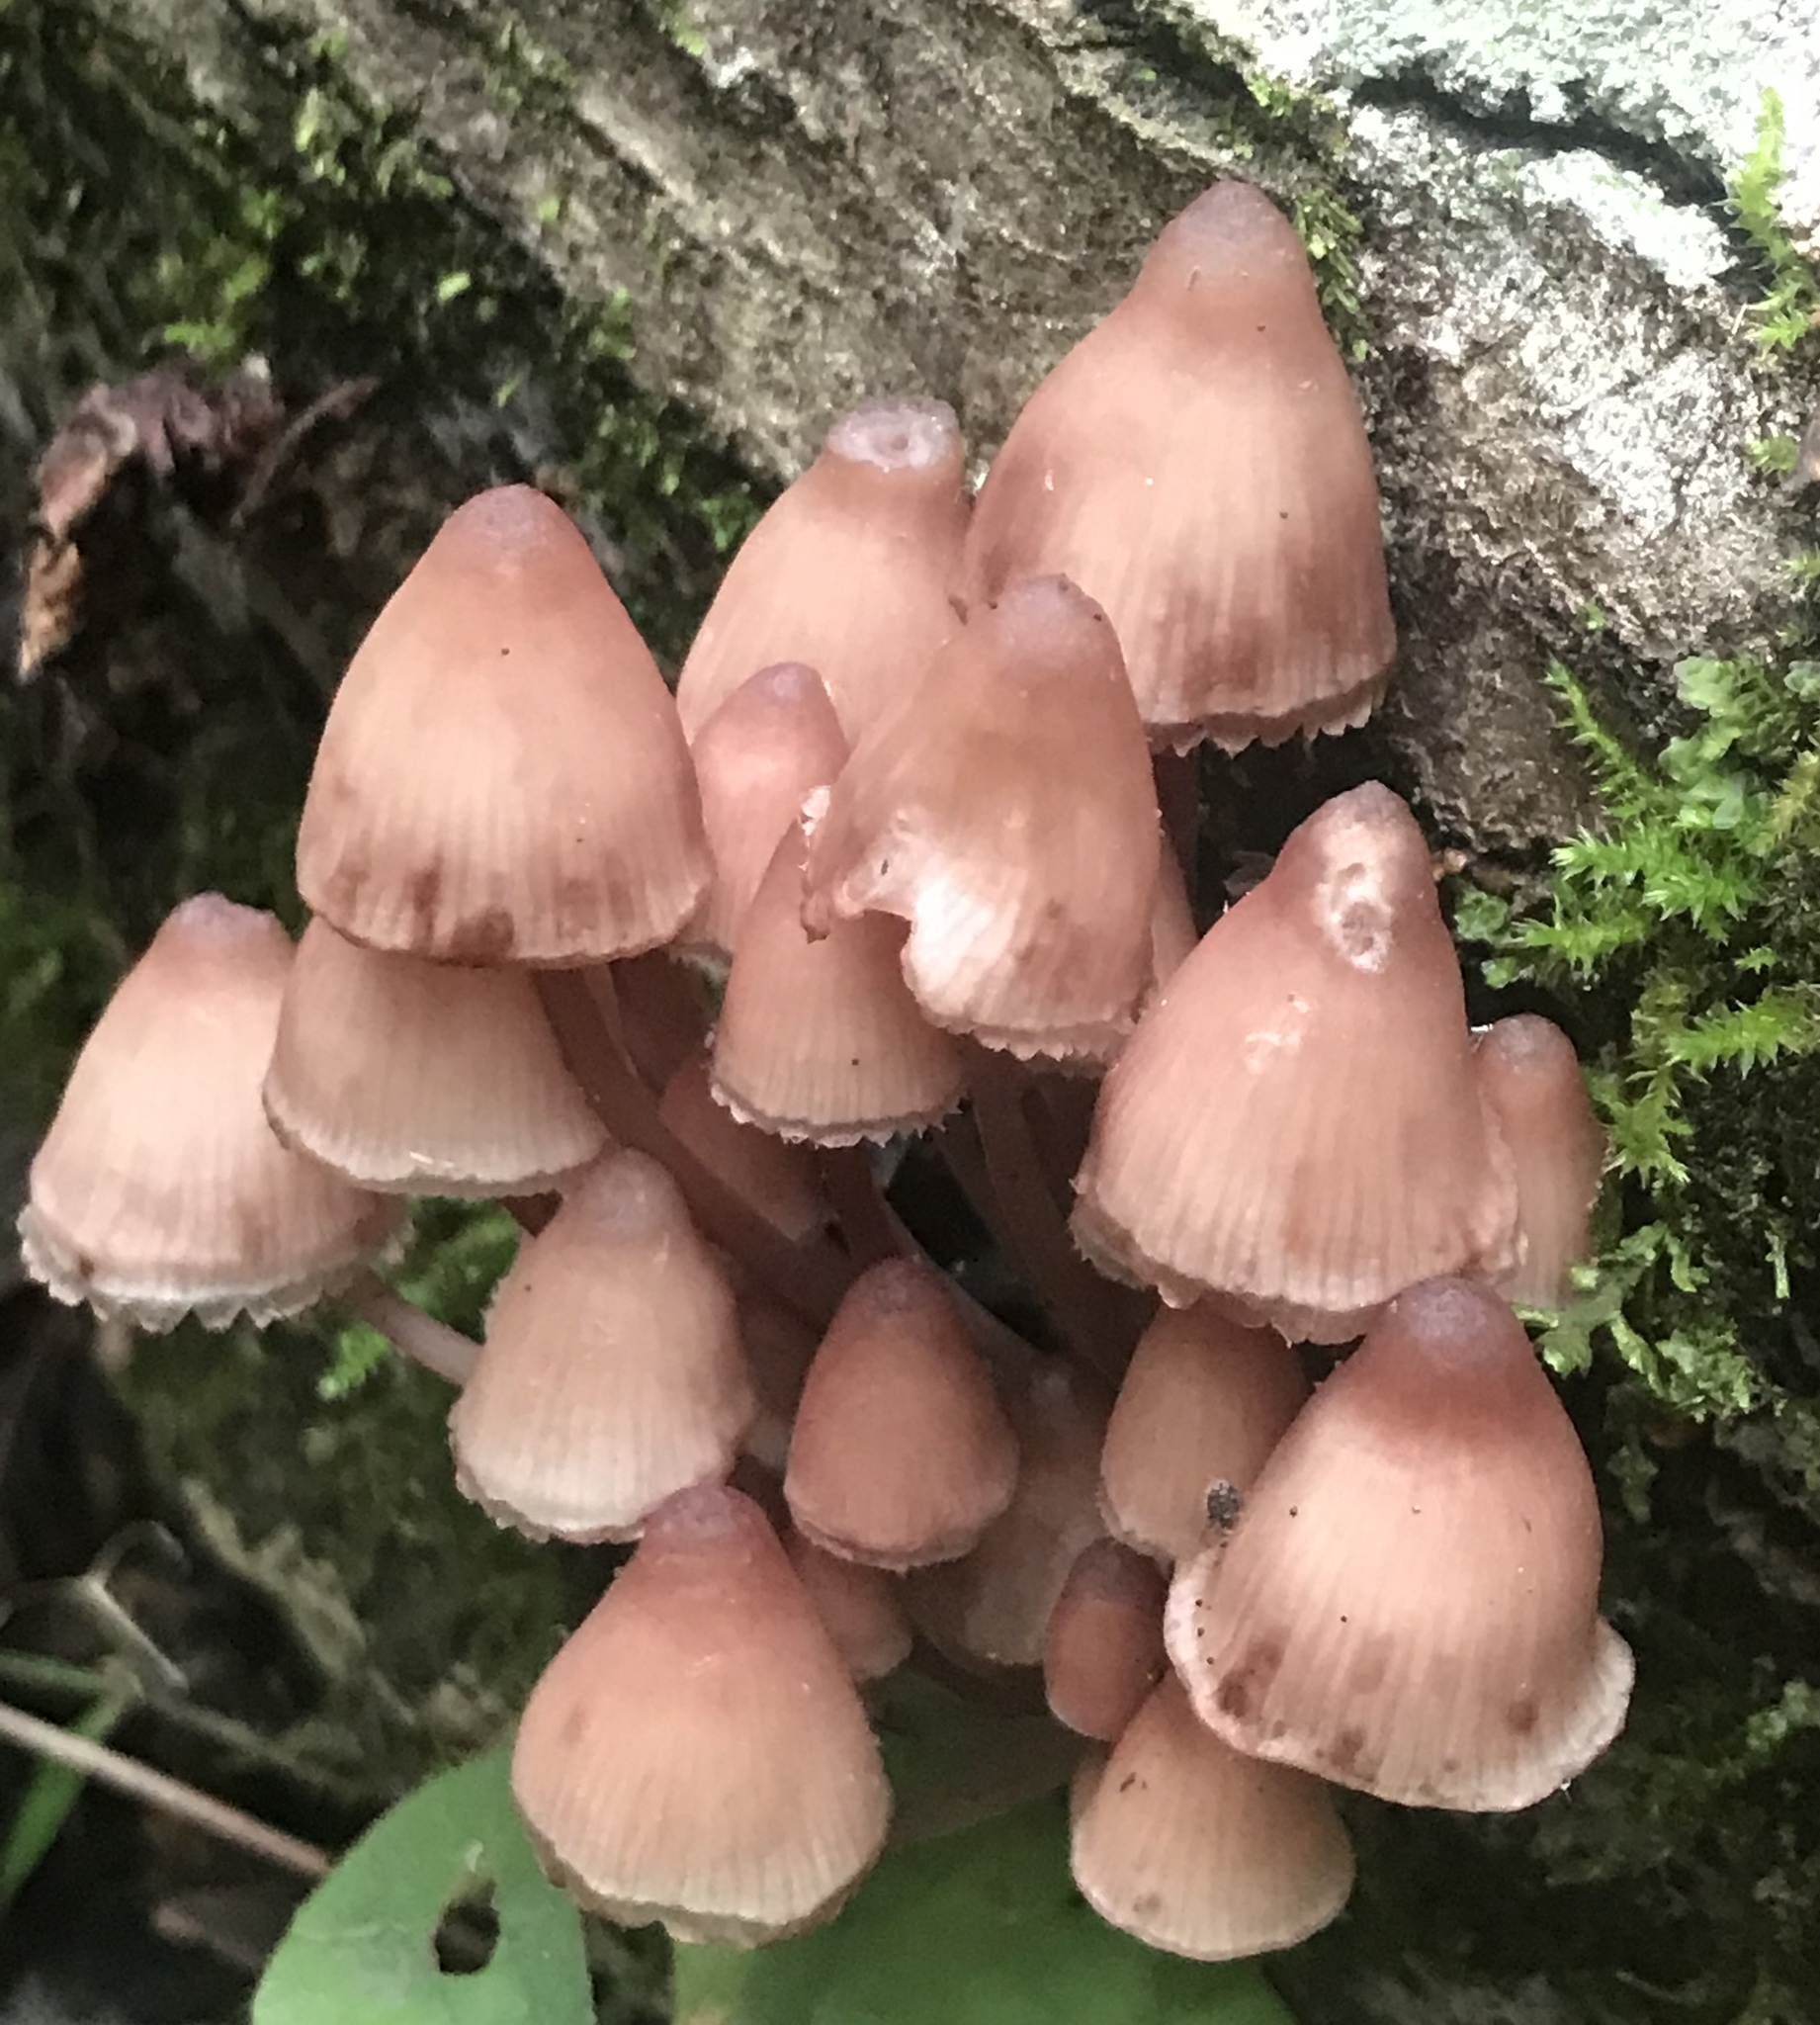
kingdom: Fungi
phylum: Basidiomycota
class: Agaricomycetes
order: Agaricales
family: Mycenaceae
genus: Mycena
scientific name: Mycena haematopus
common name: Burgundydrop bonnet
